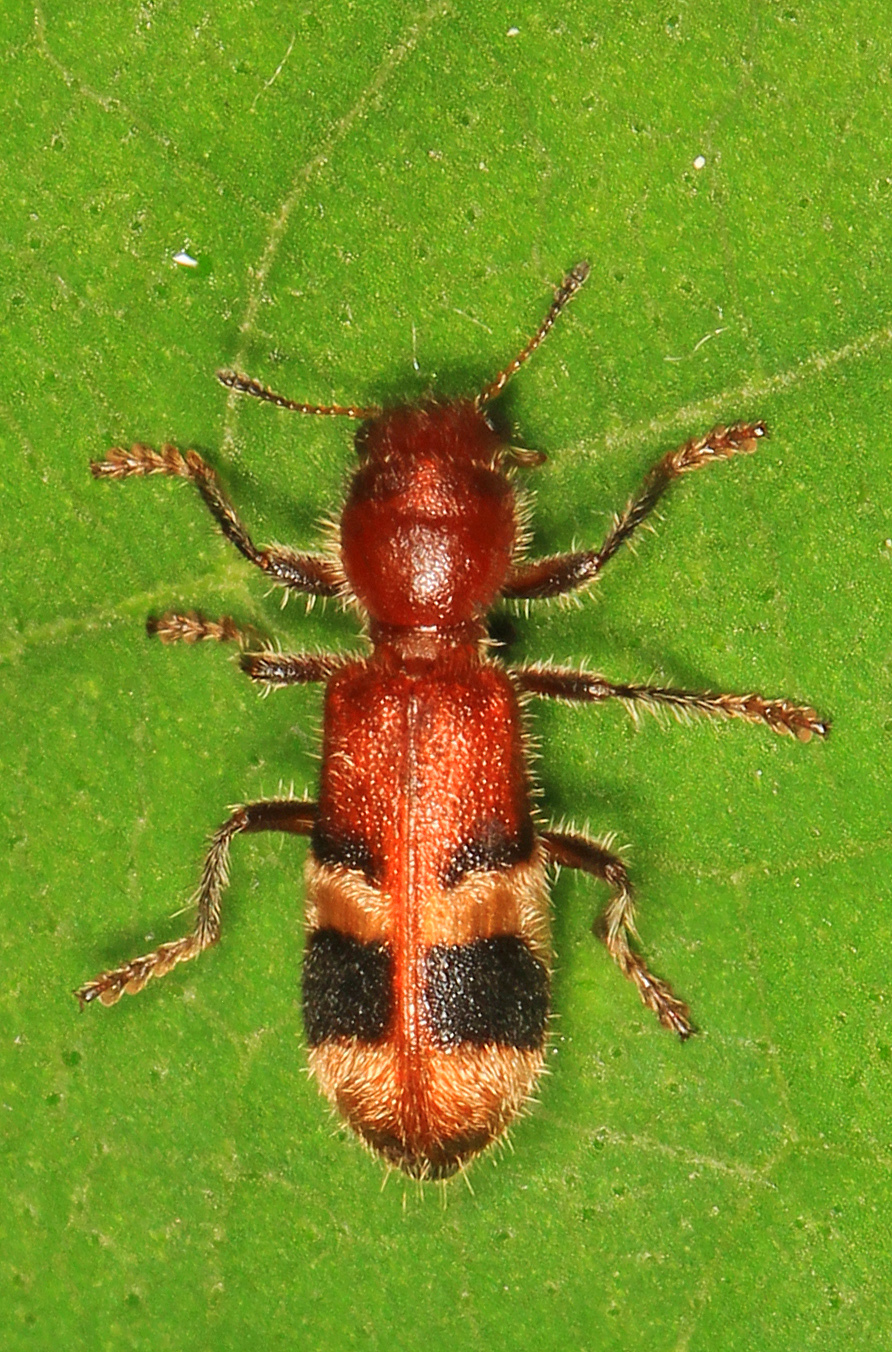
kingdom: Animalia
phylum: Arthropoda
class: Insecta
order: Coleoptera
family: Cleridae
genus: Enoclerus
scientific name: Enoclerus rosmarus
